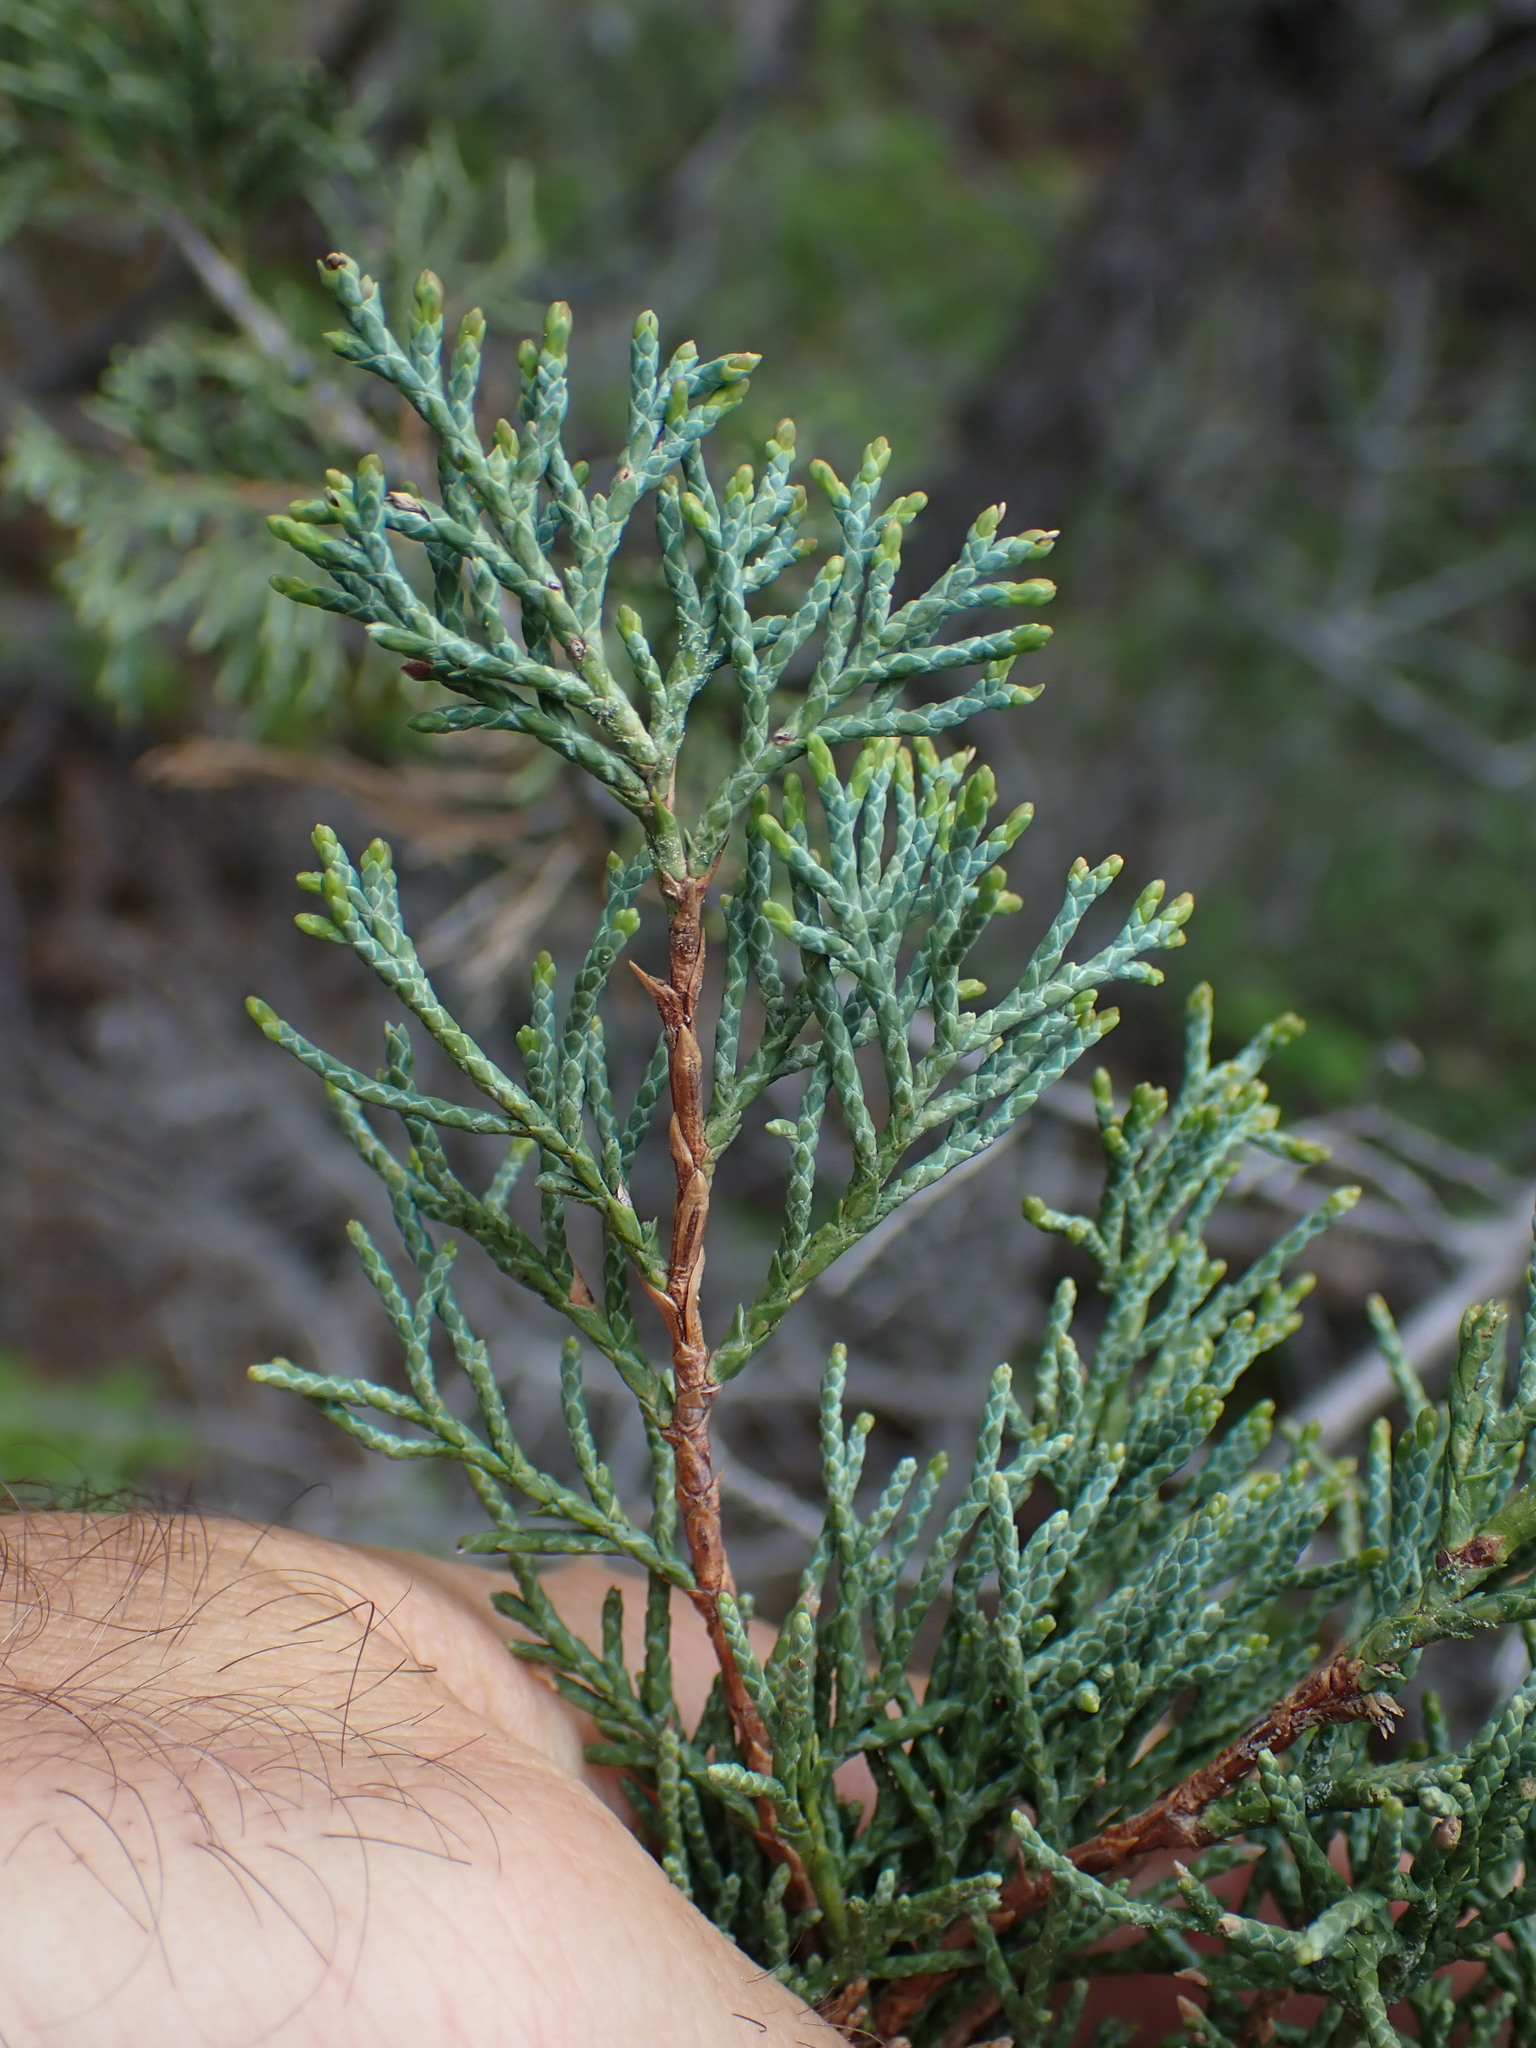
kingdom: Plantae
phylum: Tracheophyta
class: Pinopsida
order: Pinales
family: Cupressaceae
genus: Juniperus
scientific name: Juniperus scopulorum
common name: Rocky mountain juniper
